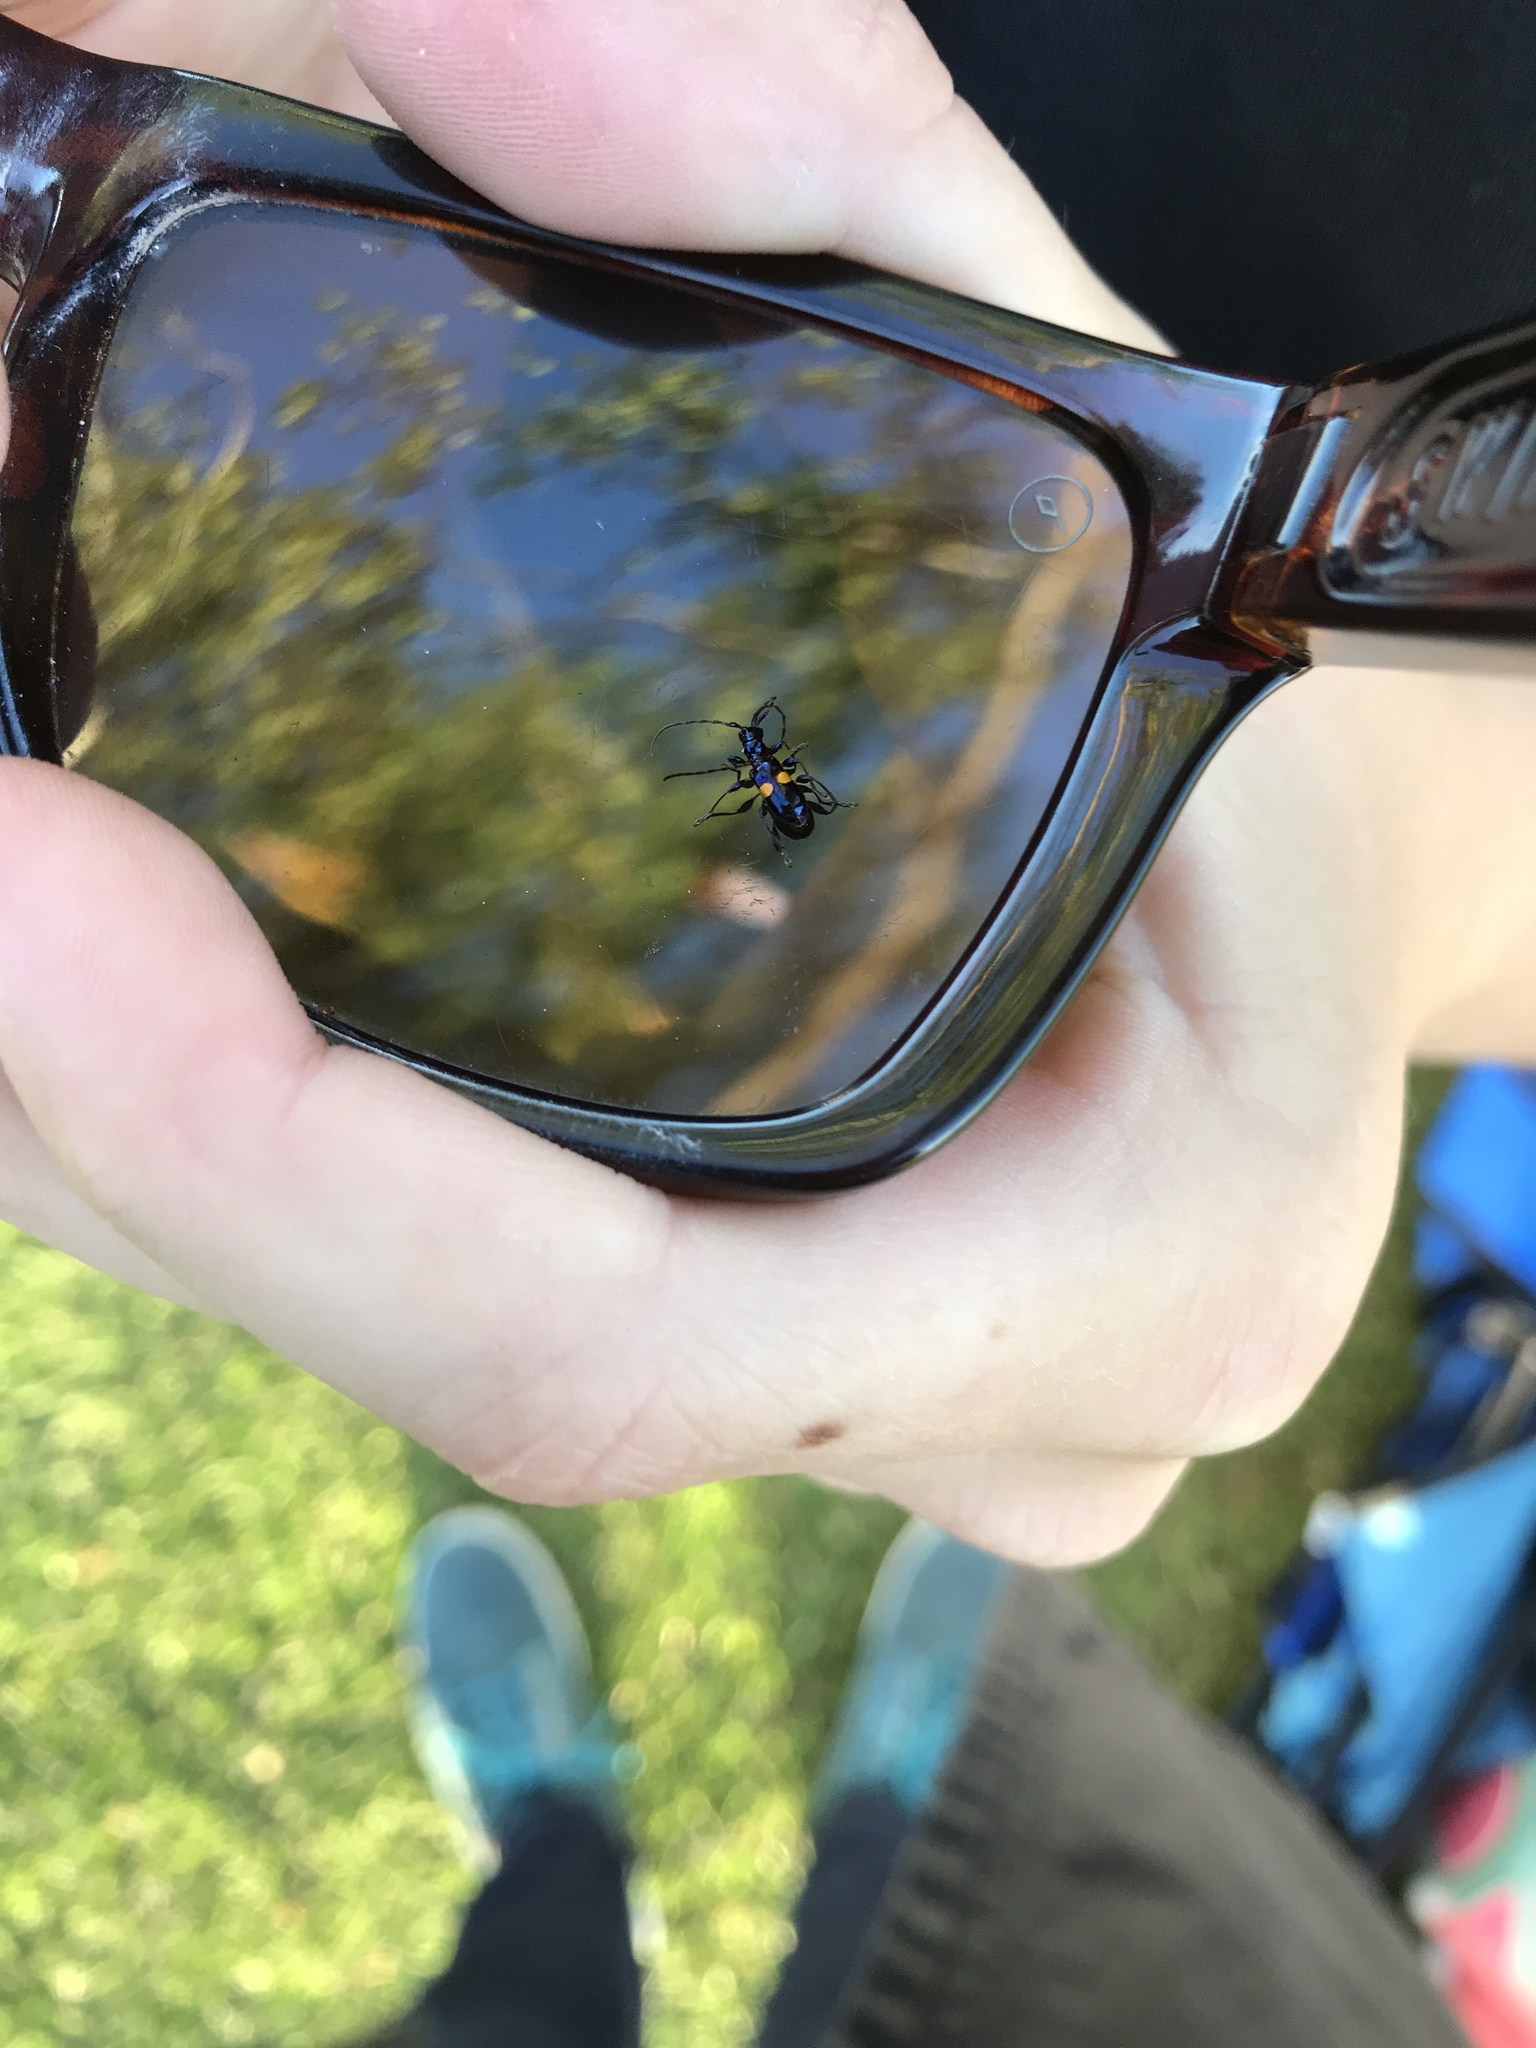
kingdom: Animalia
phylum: Arthropoda
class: Insecta
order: Coleoptera
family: Cerambycidae
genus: Zorion
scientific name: Zorion guttigerum
